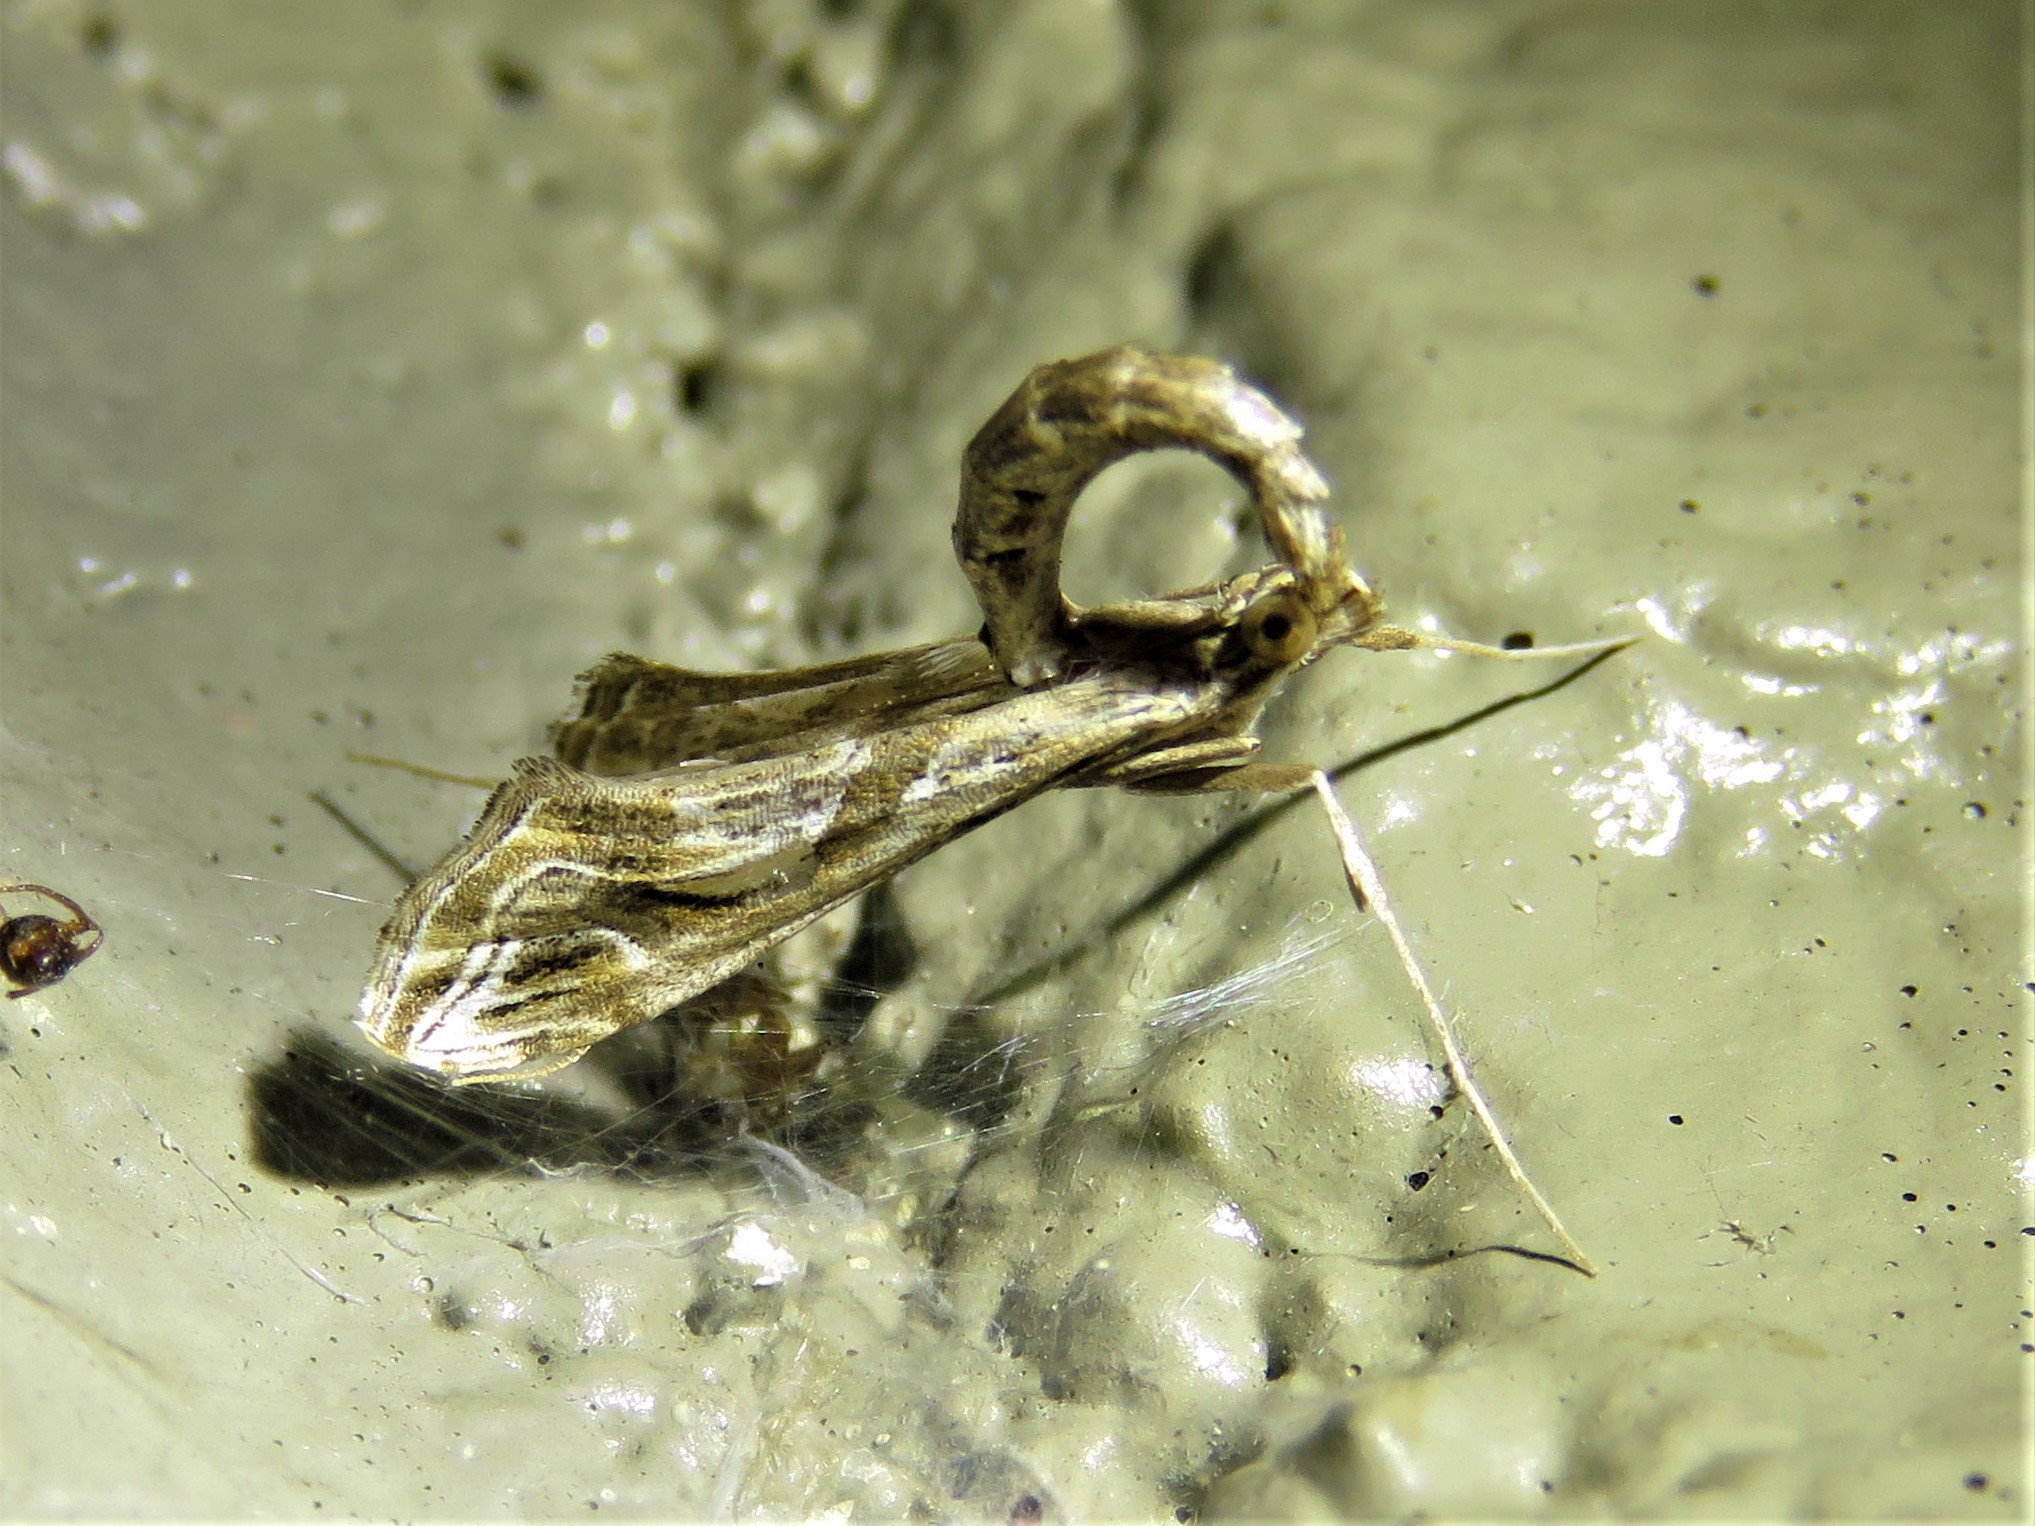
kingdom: Animalia
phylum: Arthropoda
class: Insecta
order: Lepidoptera
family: Crambidae
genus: Lineodes
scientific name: Lineodes integra
